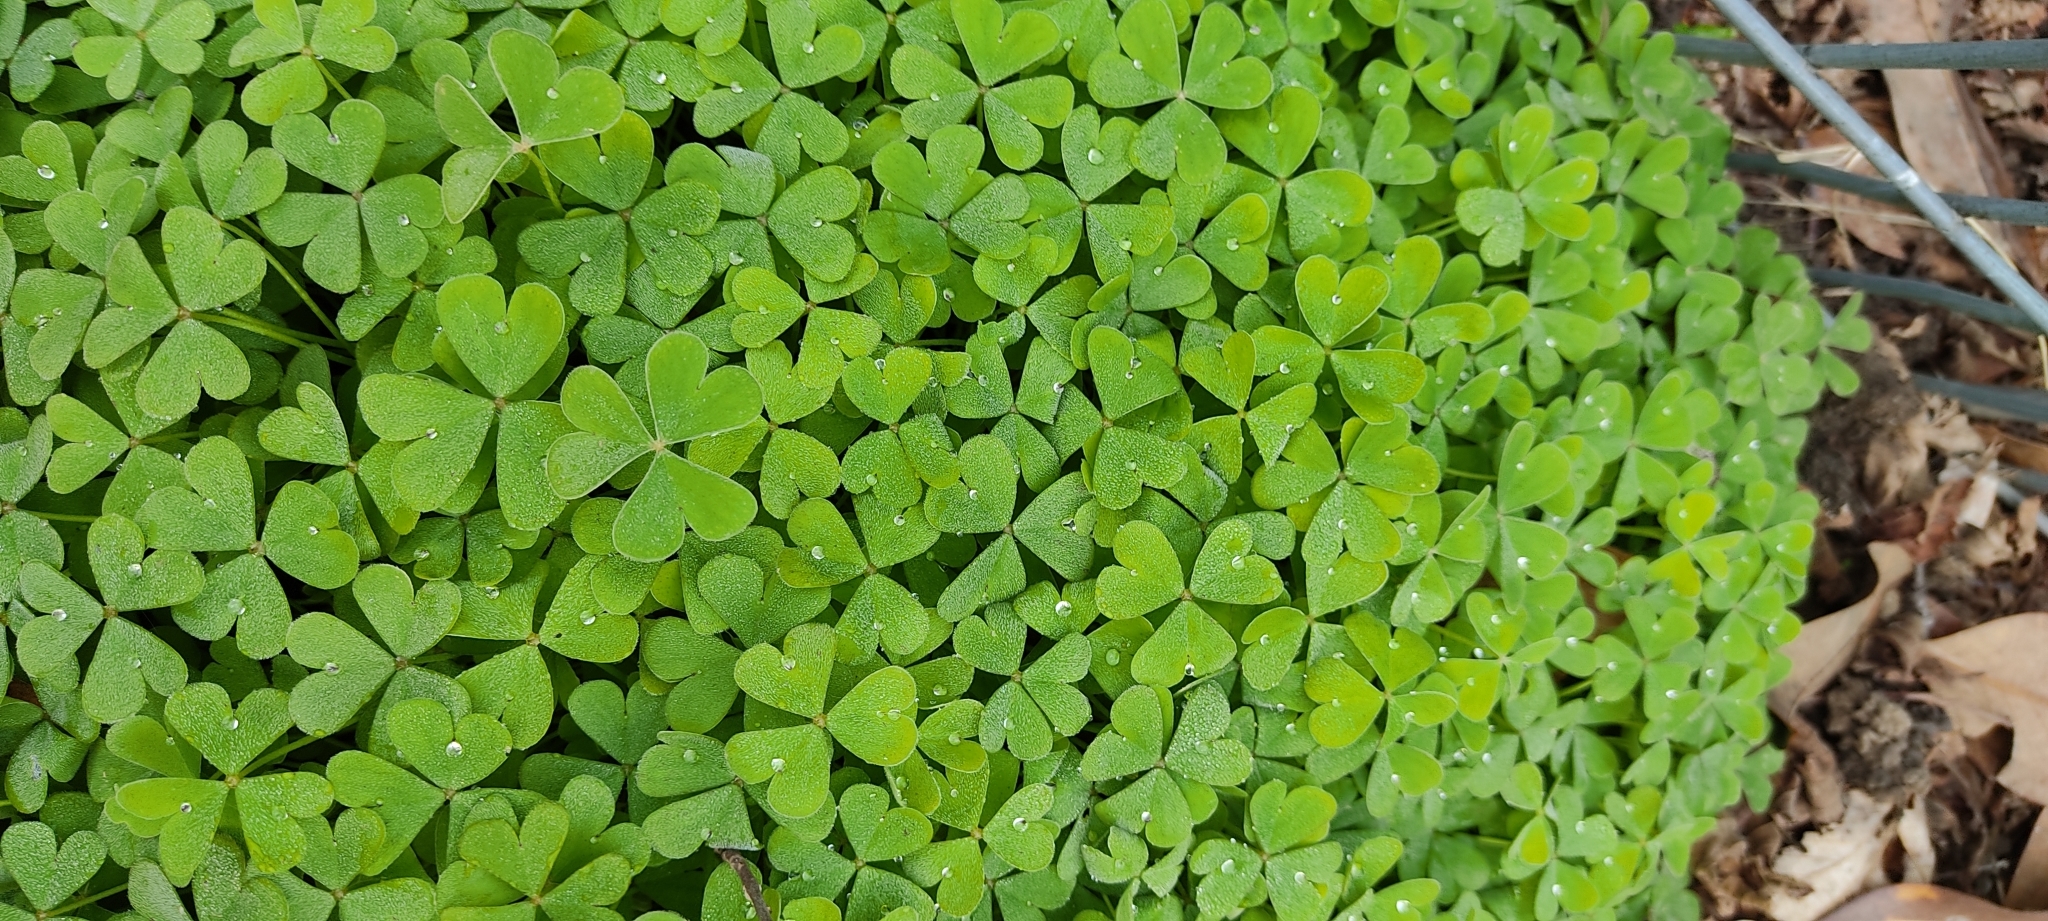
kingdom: Plantae
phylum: Tracheophyta
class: Magnoliopsida
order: Oxalidales
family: Oxalidaceae
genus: Oxalis
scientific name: Oxalis articulata
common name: Pink-sorrel
